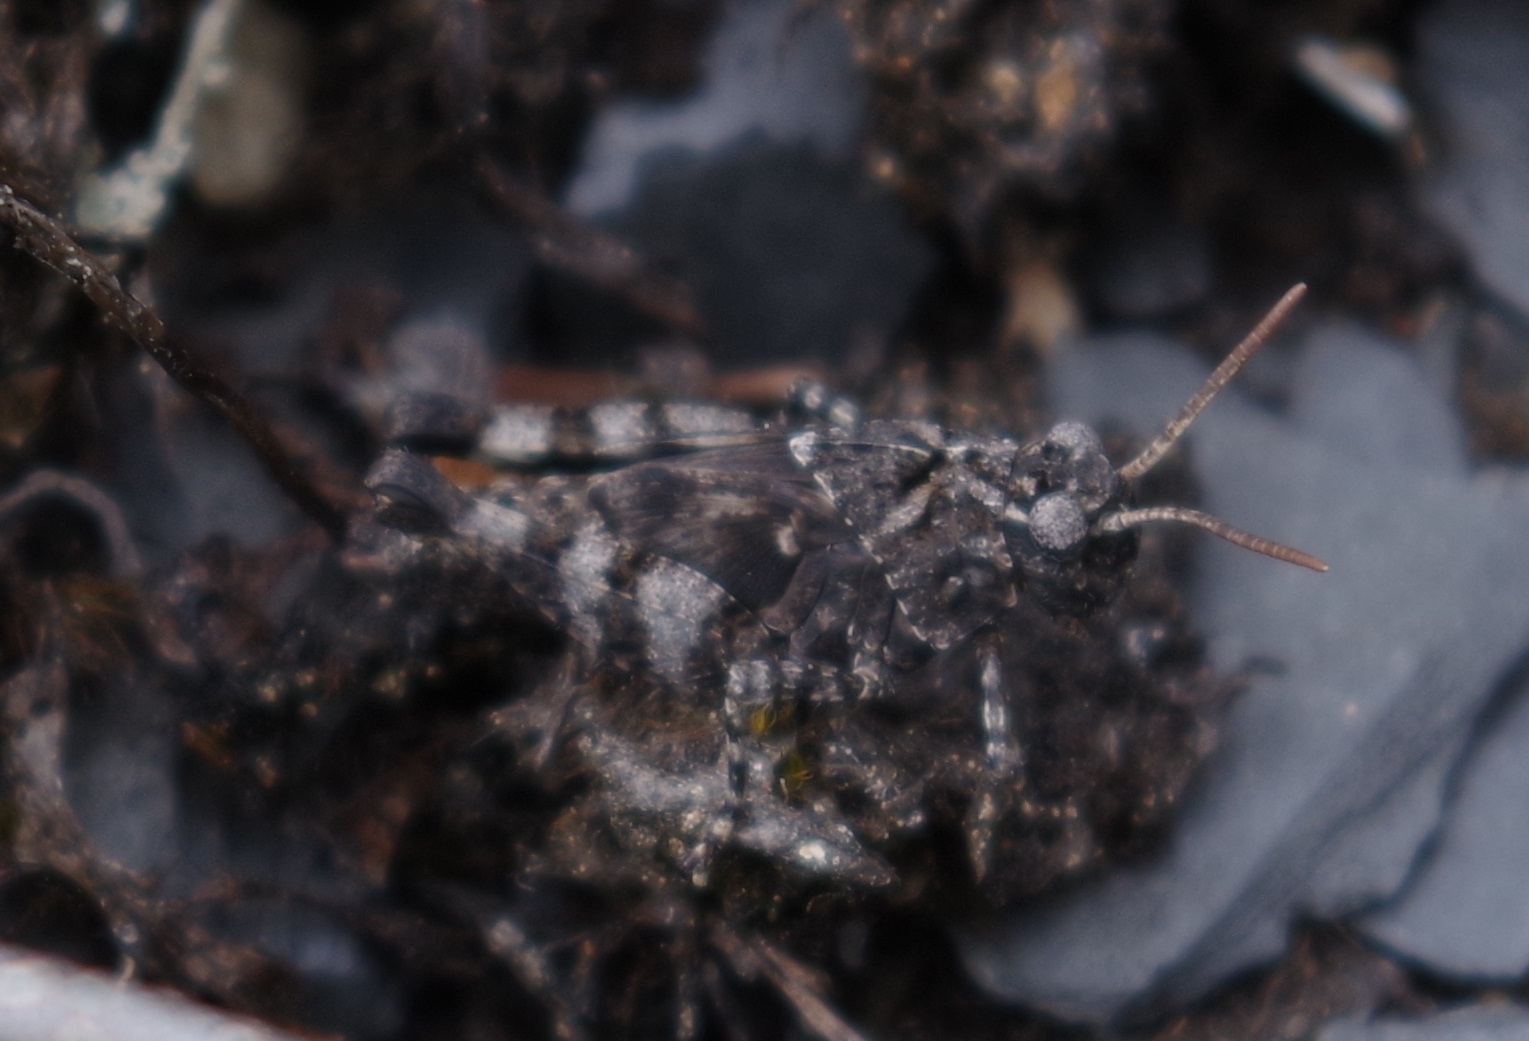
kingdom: Animalia
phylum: Arthropoda
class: Insecta
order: Orthoptera
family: Acrididae
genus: Oedipoda
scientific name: Oedipoda caerulescens
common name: Blue-winged grasshopper
